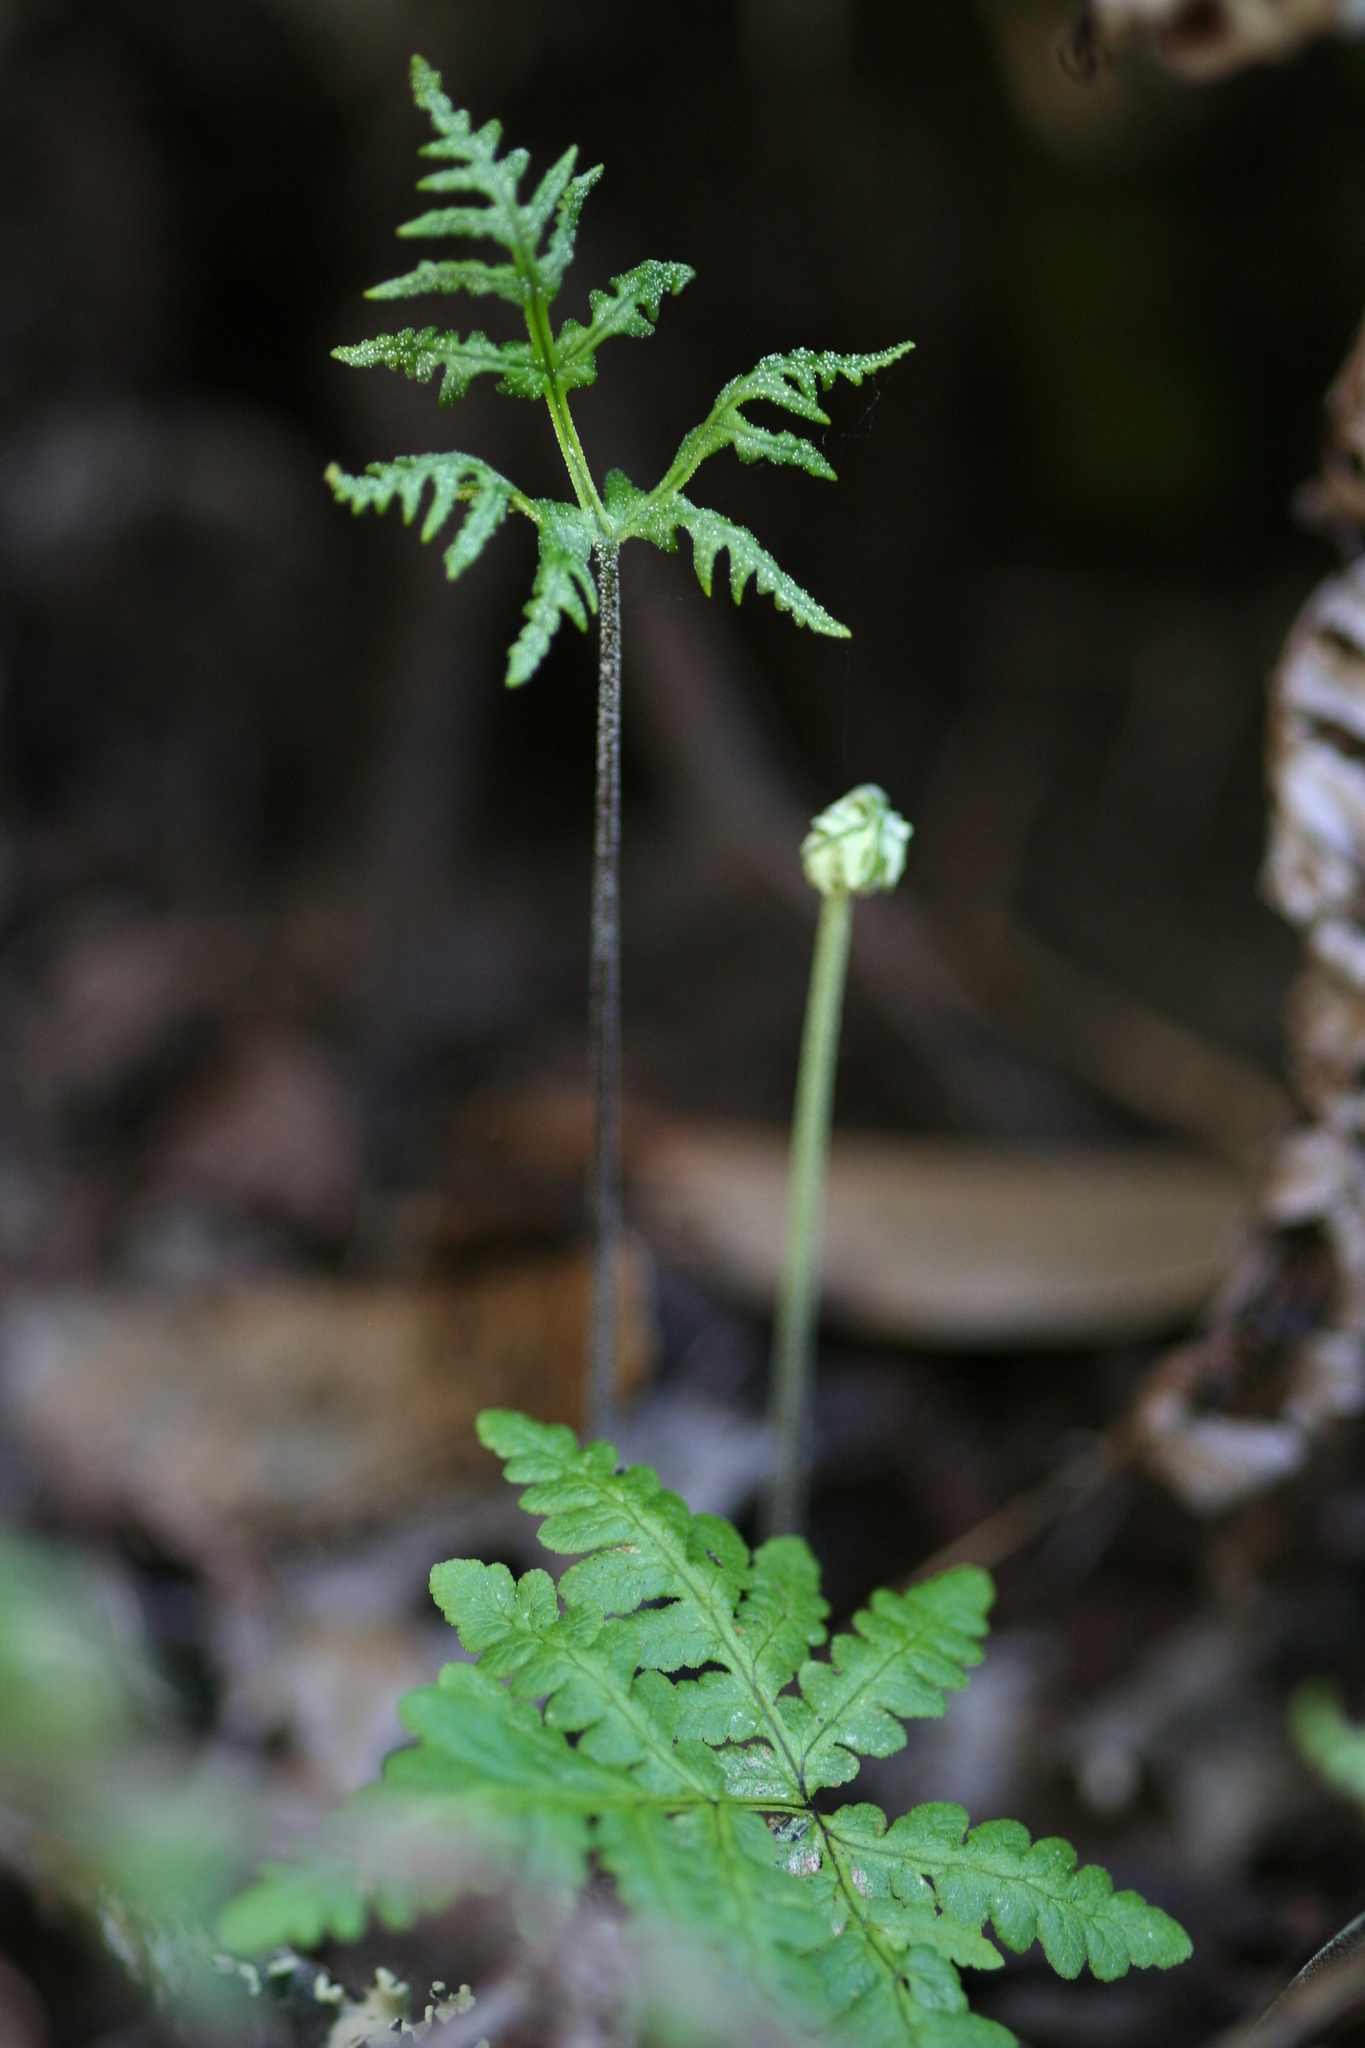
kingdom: Plantae
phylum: Tracheophyta
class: Polypodiopsida
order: Polypodiales
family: Pteridaceae
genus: Pentagramma
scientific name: Pentagramma triangularis
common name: Gold fern
